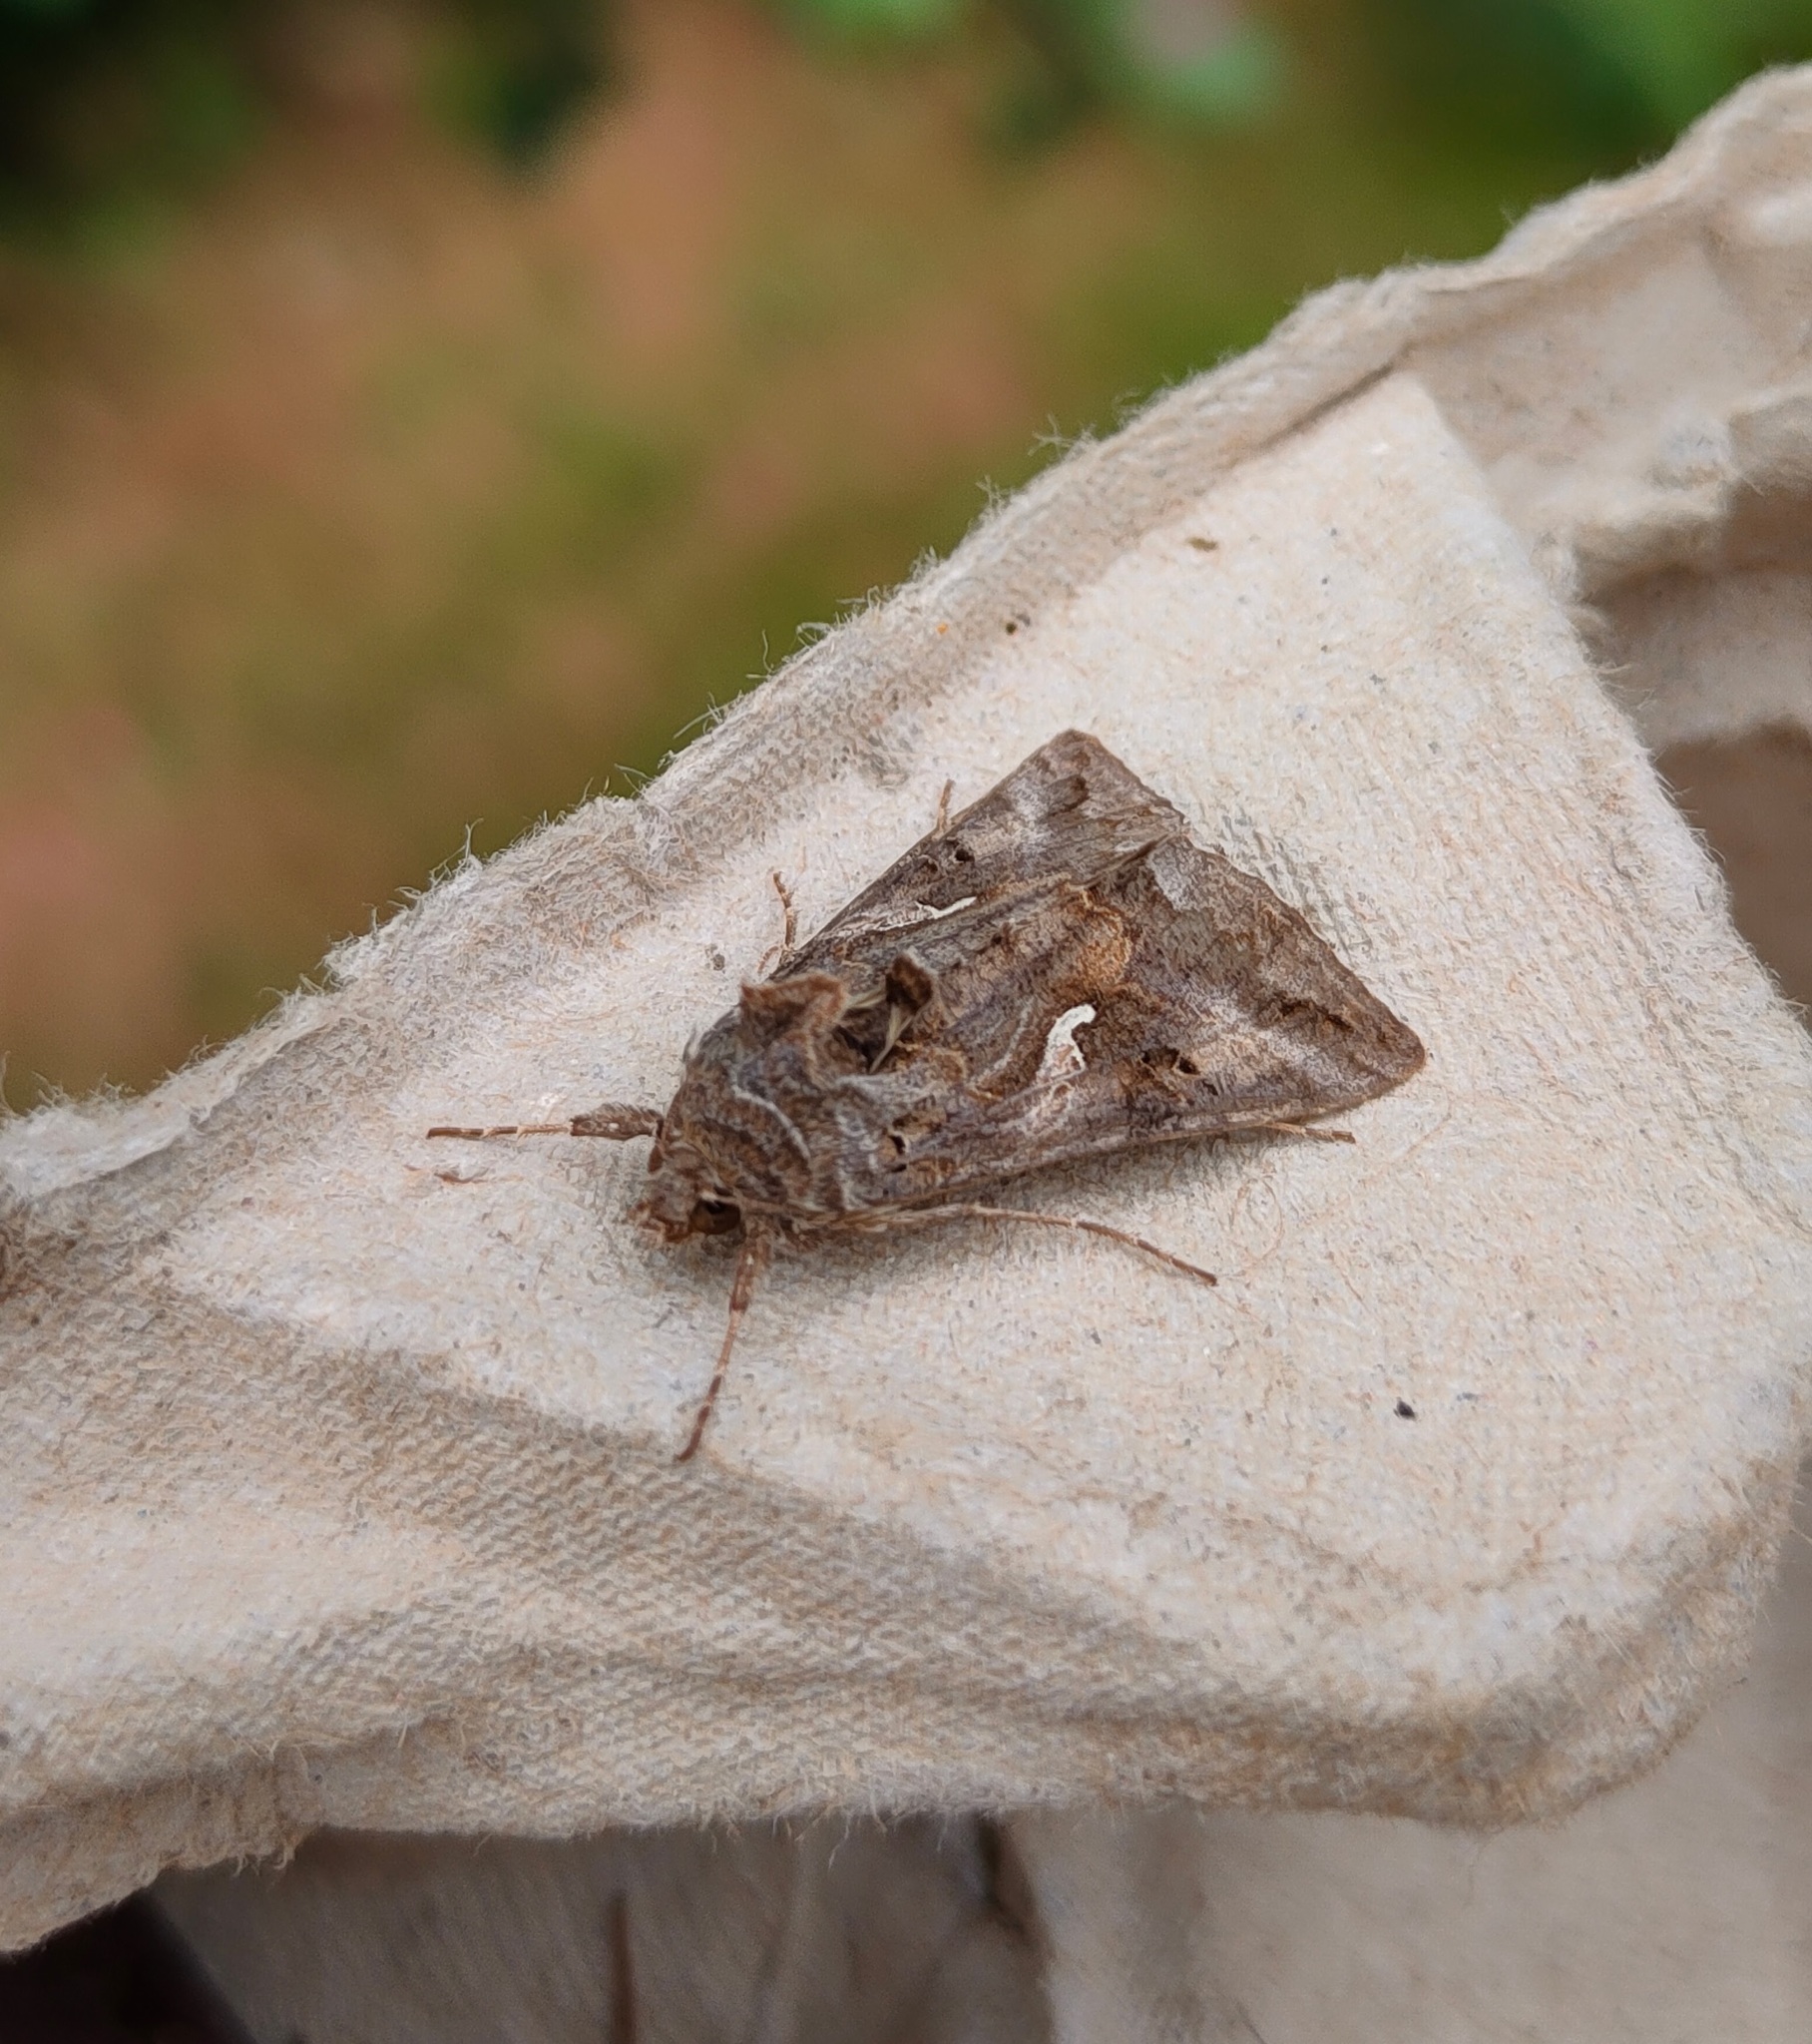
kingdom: Animalia
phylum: Arthropoda
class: Insecta
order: Lepidoptera
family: Noctuidae
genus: Autographa
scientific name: Autographa gamma
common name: Silver y
